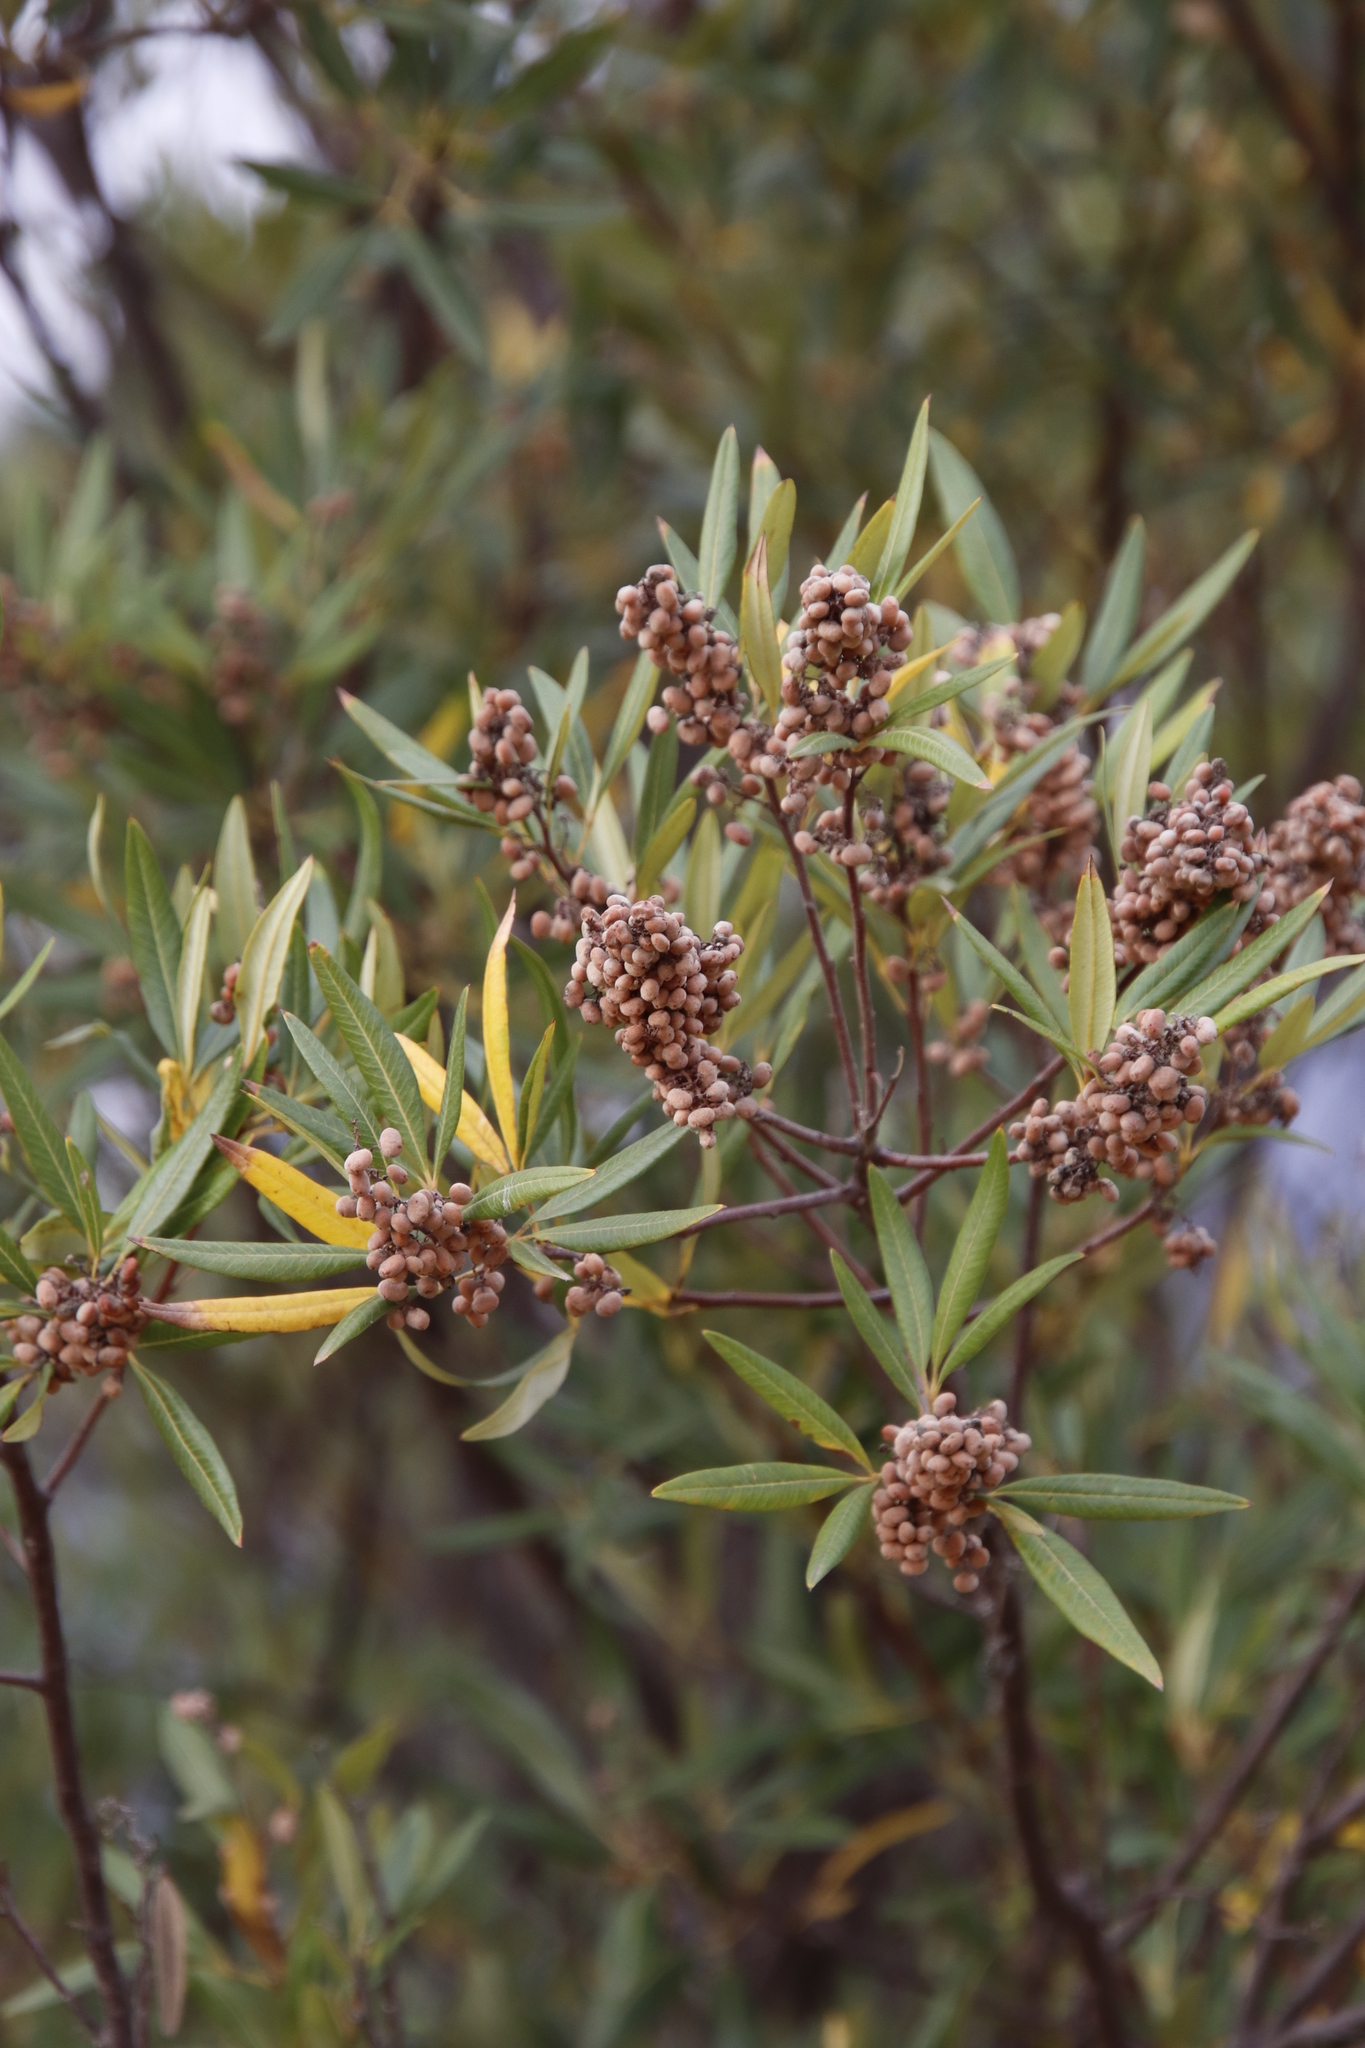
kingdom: Plantae
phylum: Tracheophyta
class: Magnoliopsida
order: Sapindales
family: Anacardiaceae
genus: Searsia
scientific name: Searsia angustifolia
